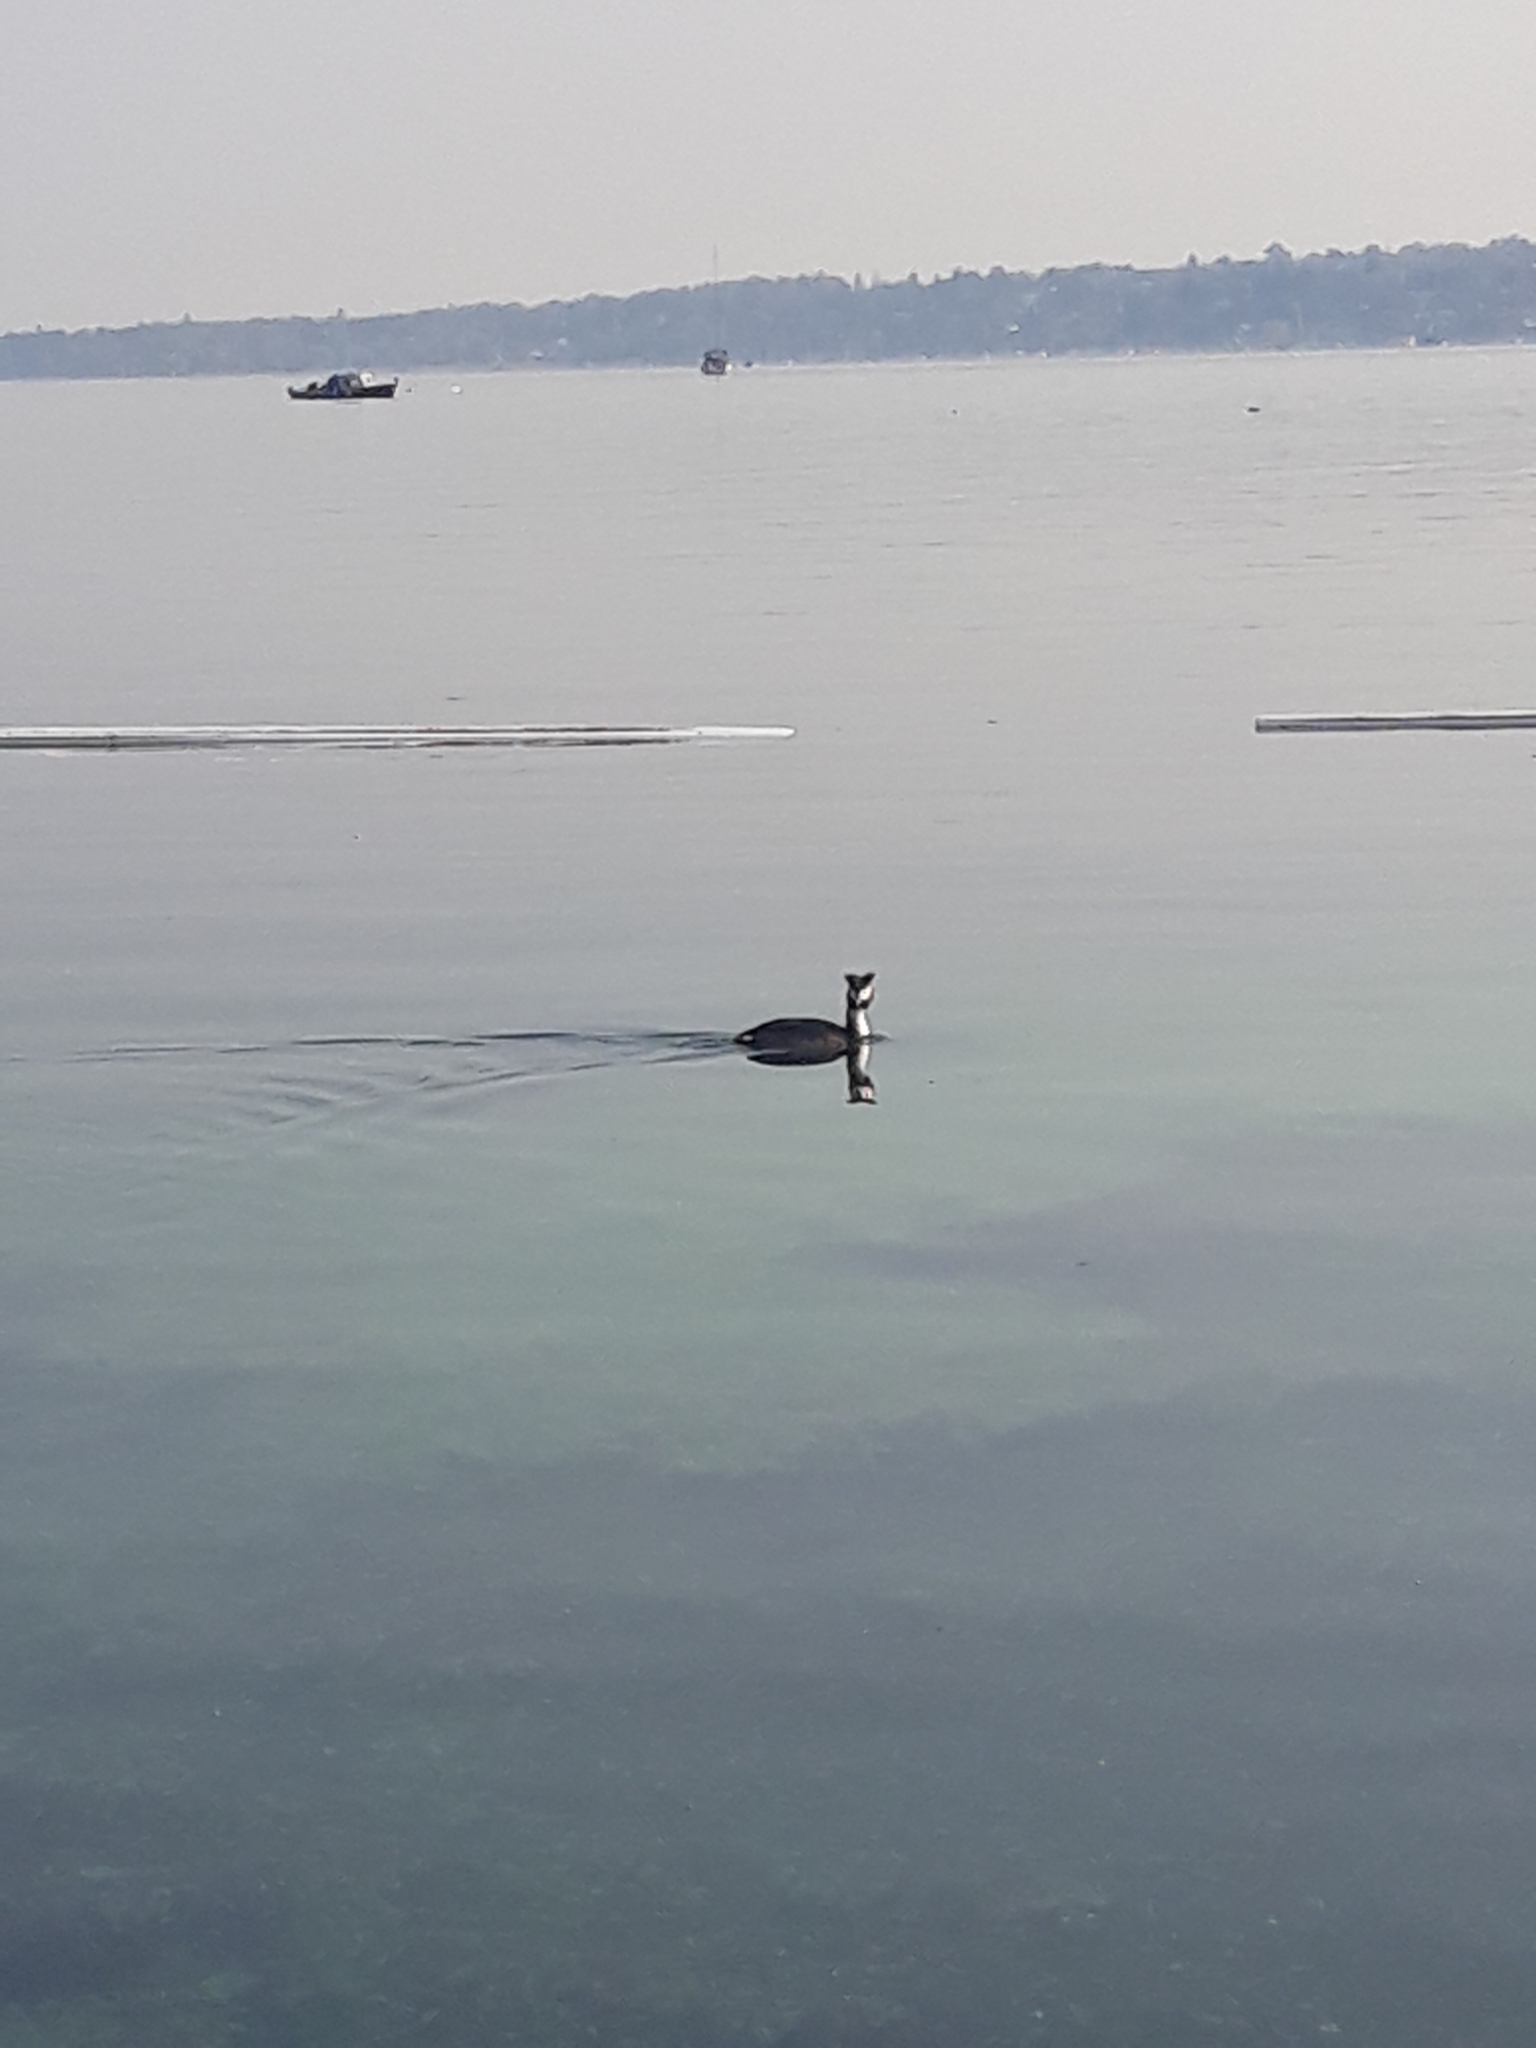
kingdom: Animalia
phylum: Chordata
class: Aves
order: Podicipediformes
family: Podicipedidae
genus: Podiceps
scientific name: Podiceps cristatus
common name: Great crested grebe
